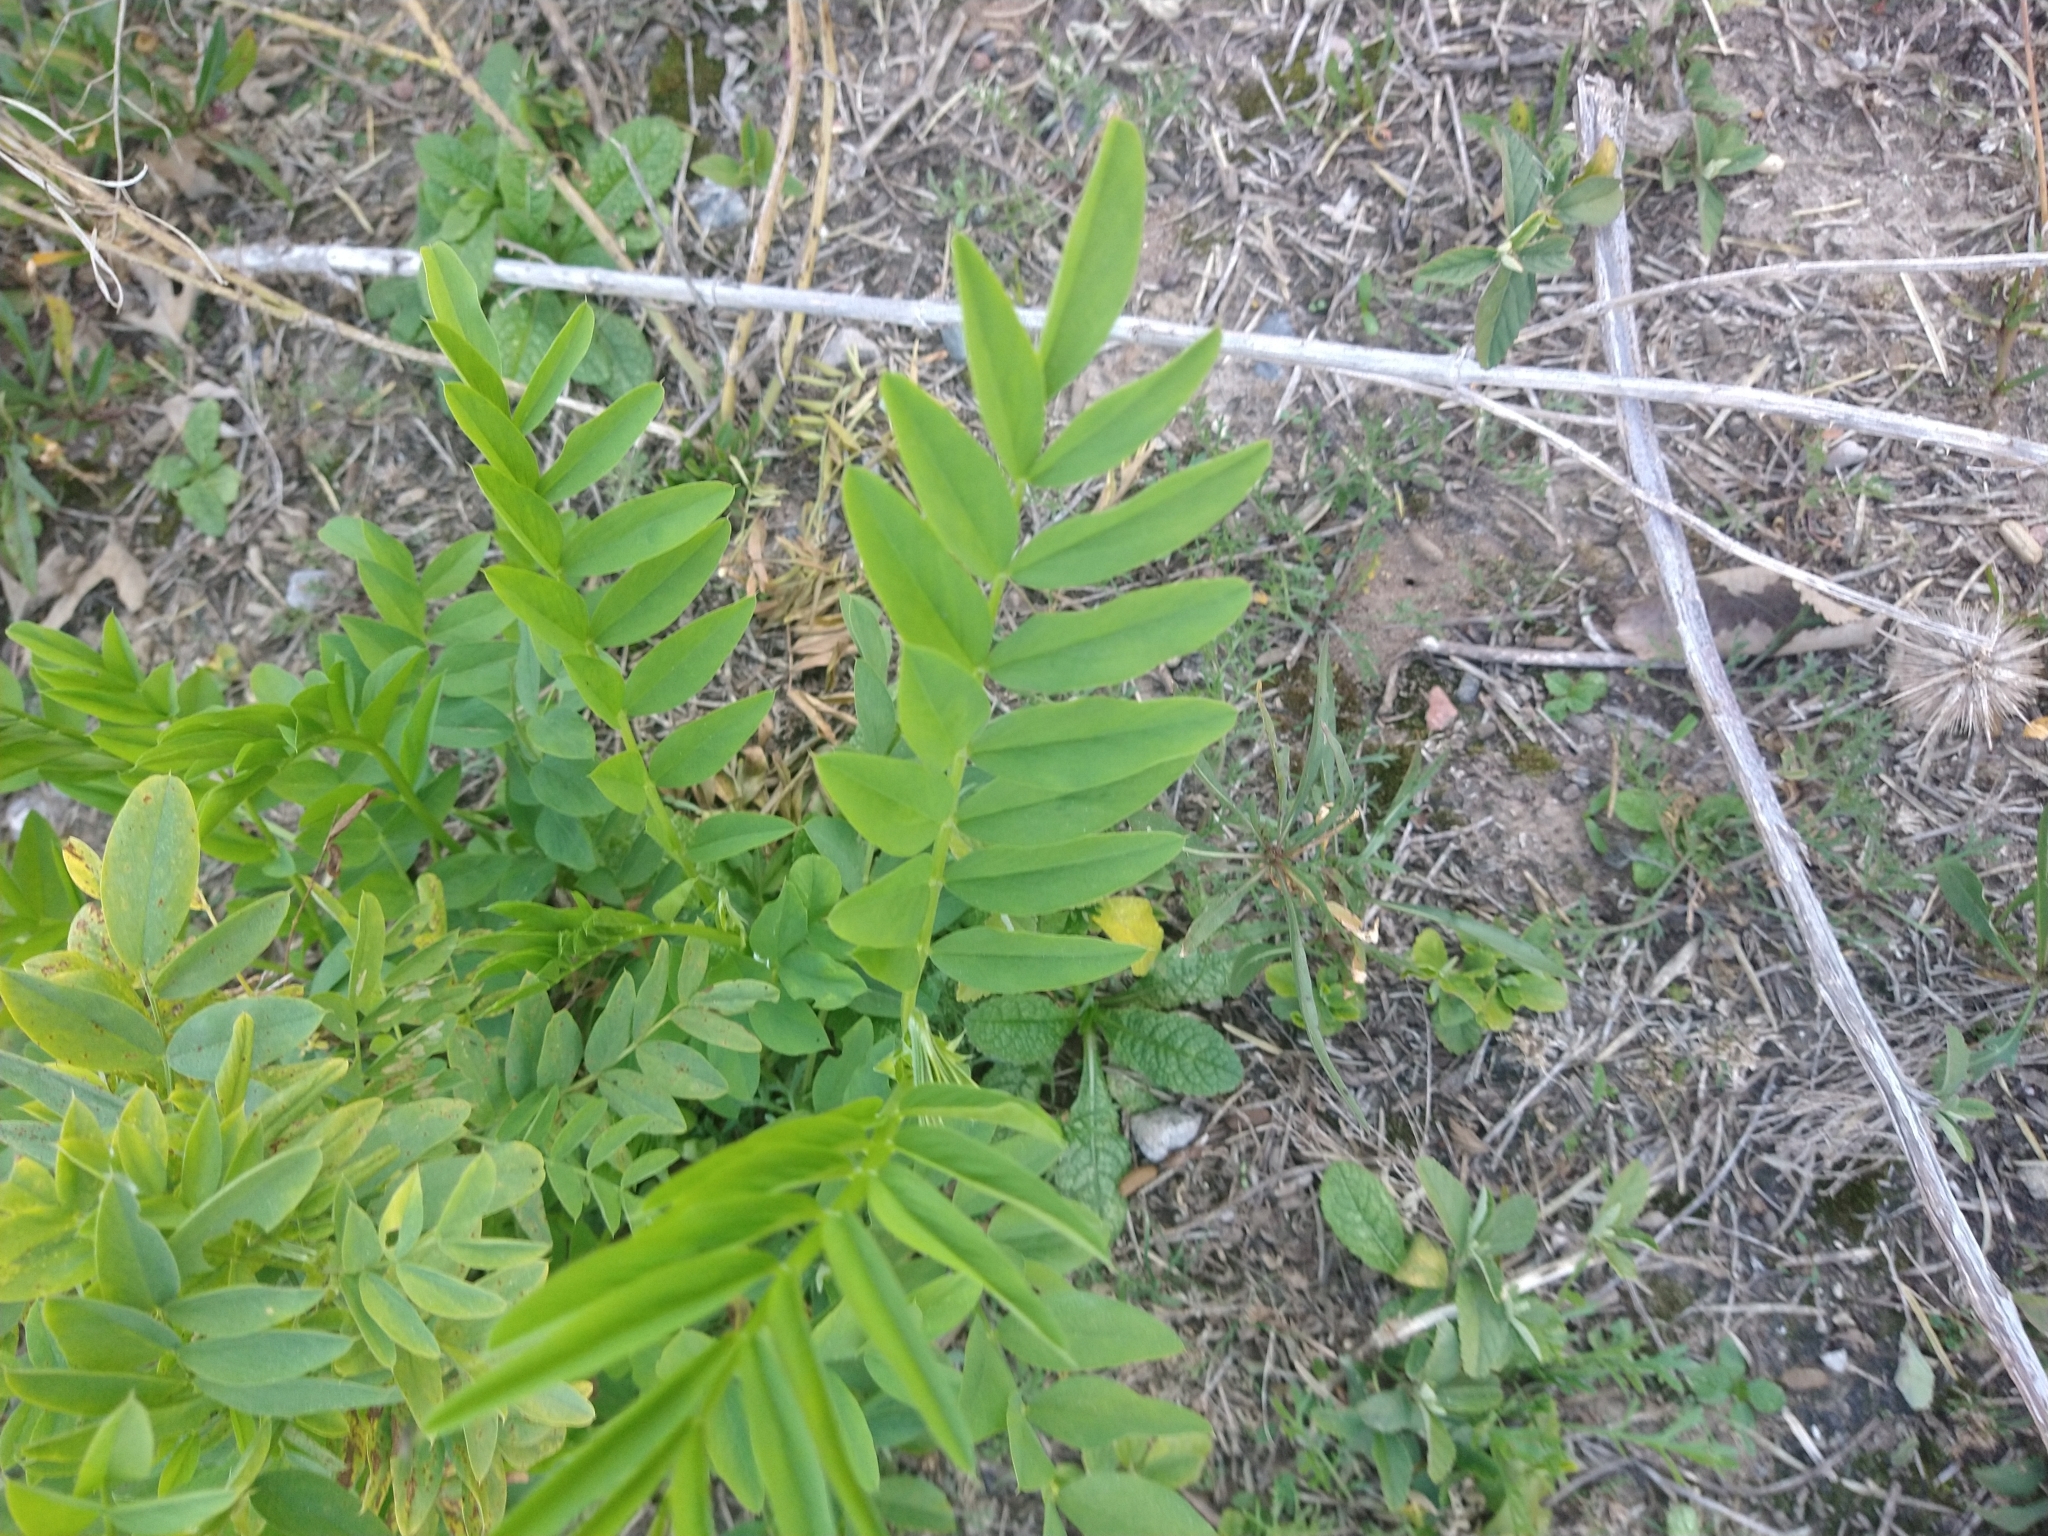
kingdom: Plantae
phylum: Tracheophyta
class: Magnoliopsida
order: Fabales
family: Fabaceae
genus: Galega
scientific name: Galega officinalis
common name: Goat's-rue
